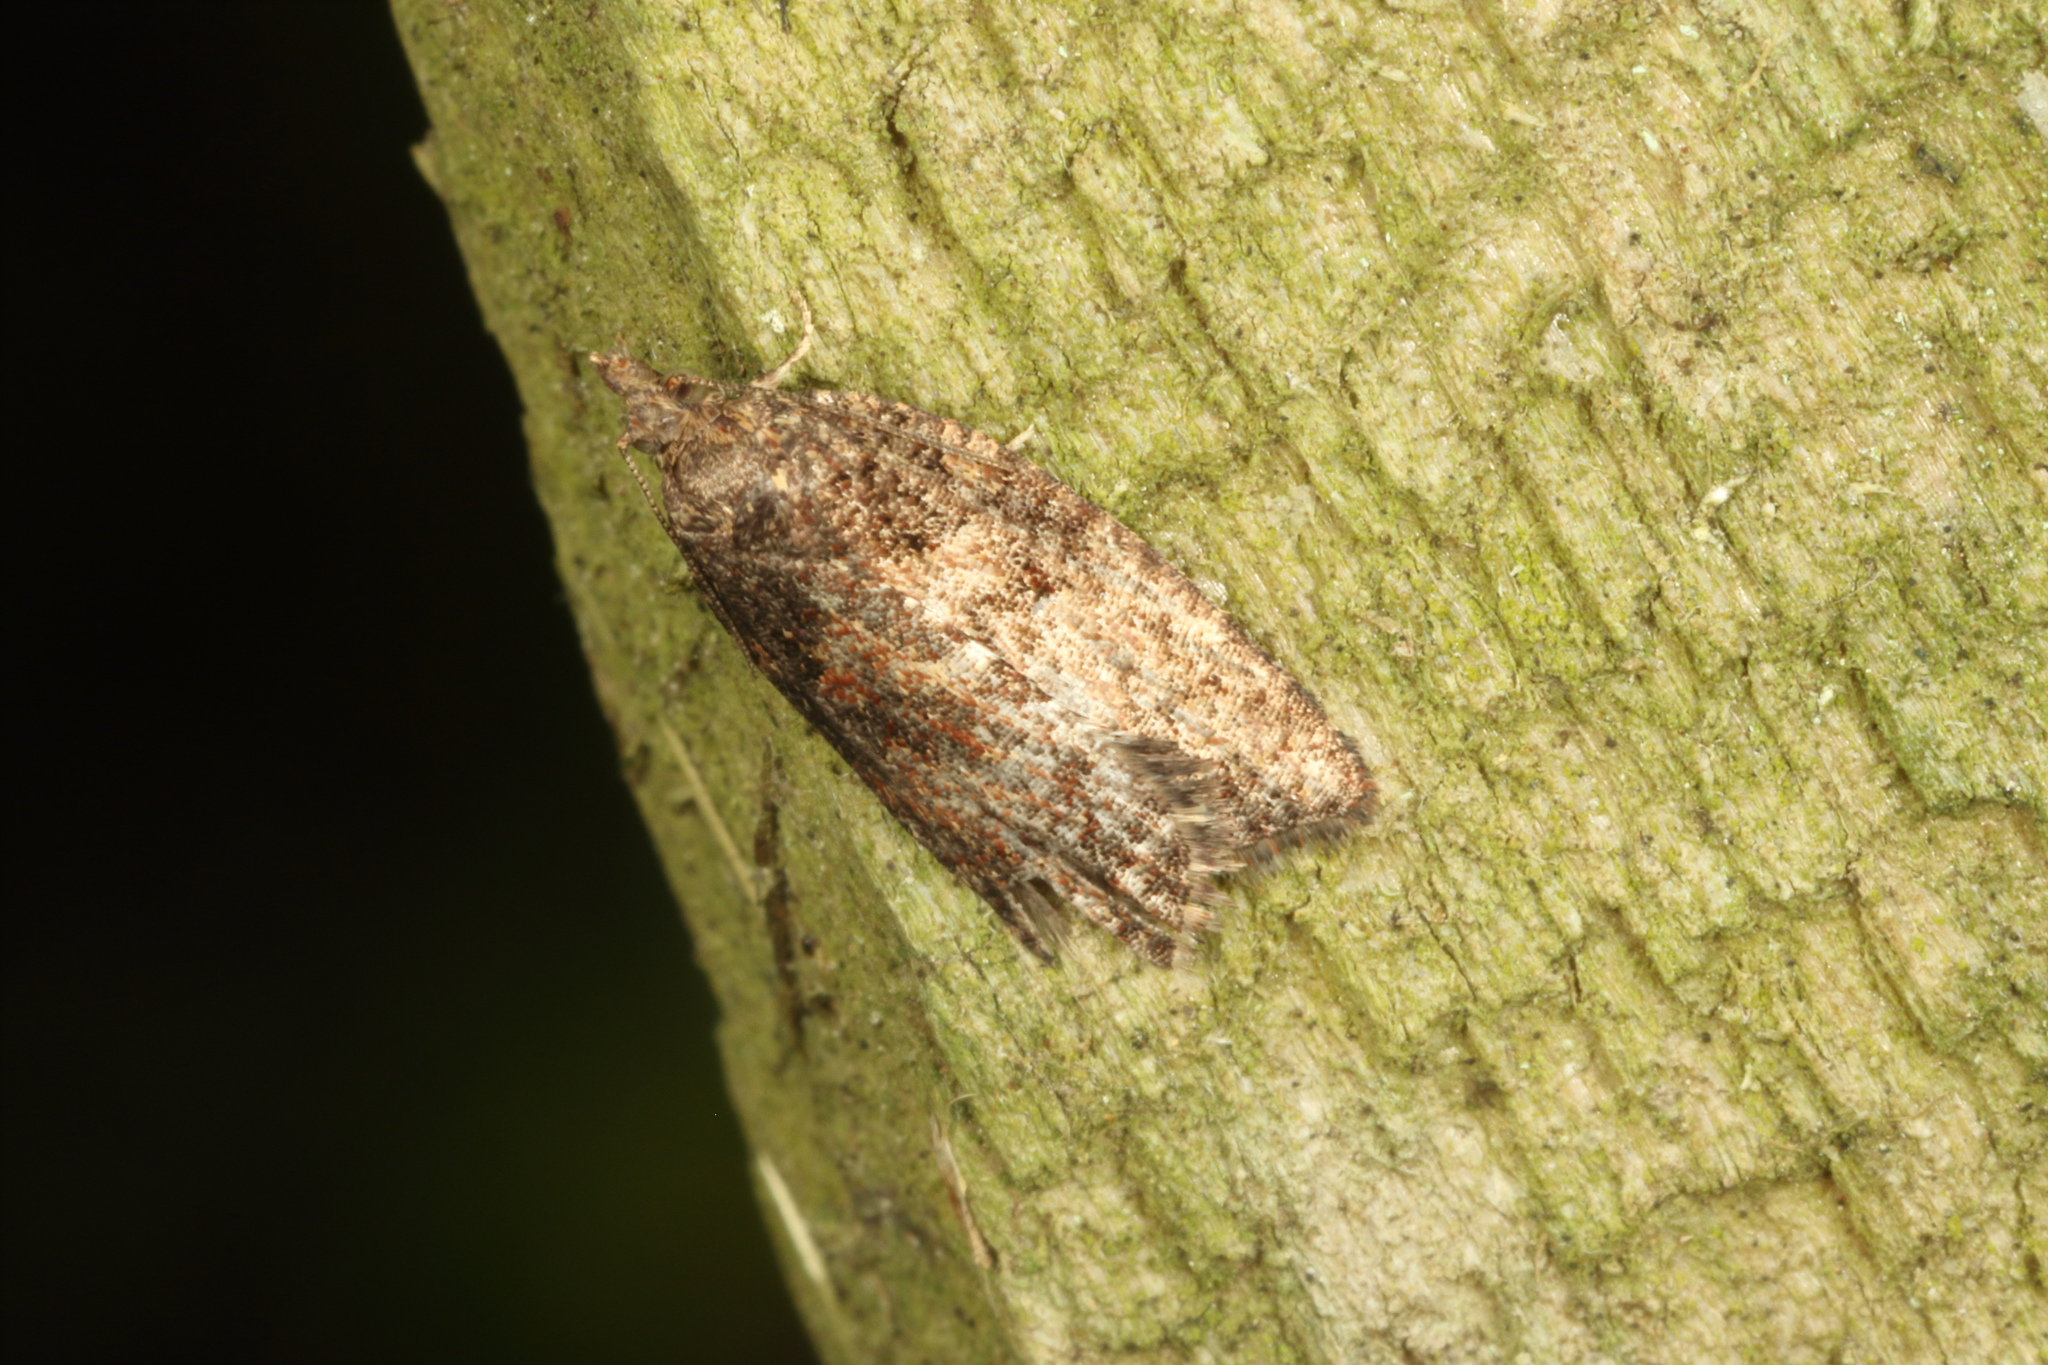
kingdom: Animalia
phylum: Arthropoda
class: Insecta
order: Lepidoptera
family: Tortricidae
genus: Capua
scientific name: Capua intractana
